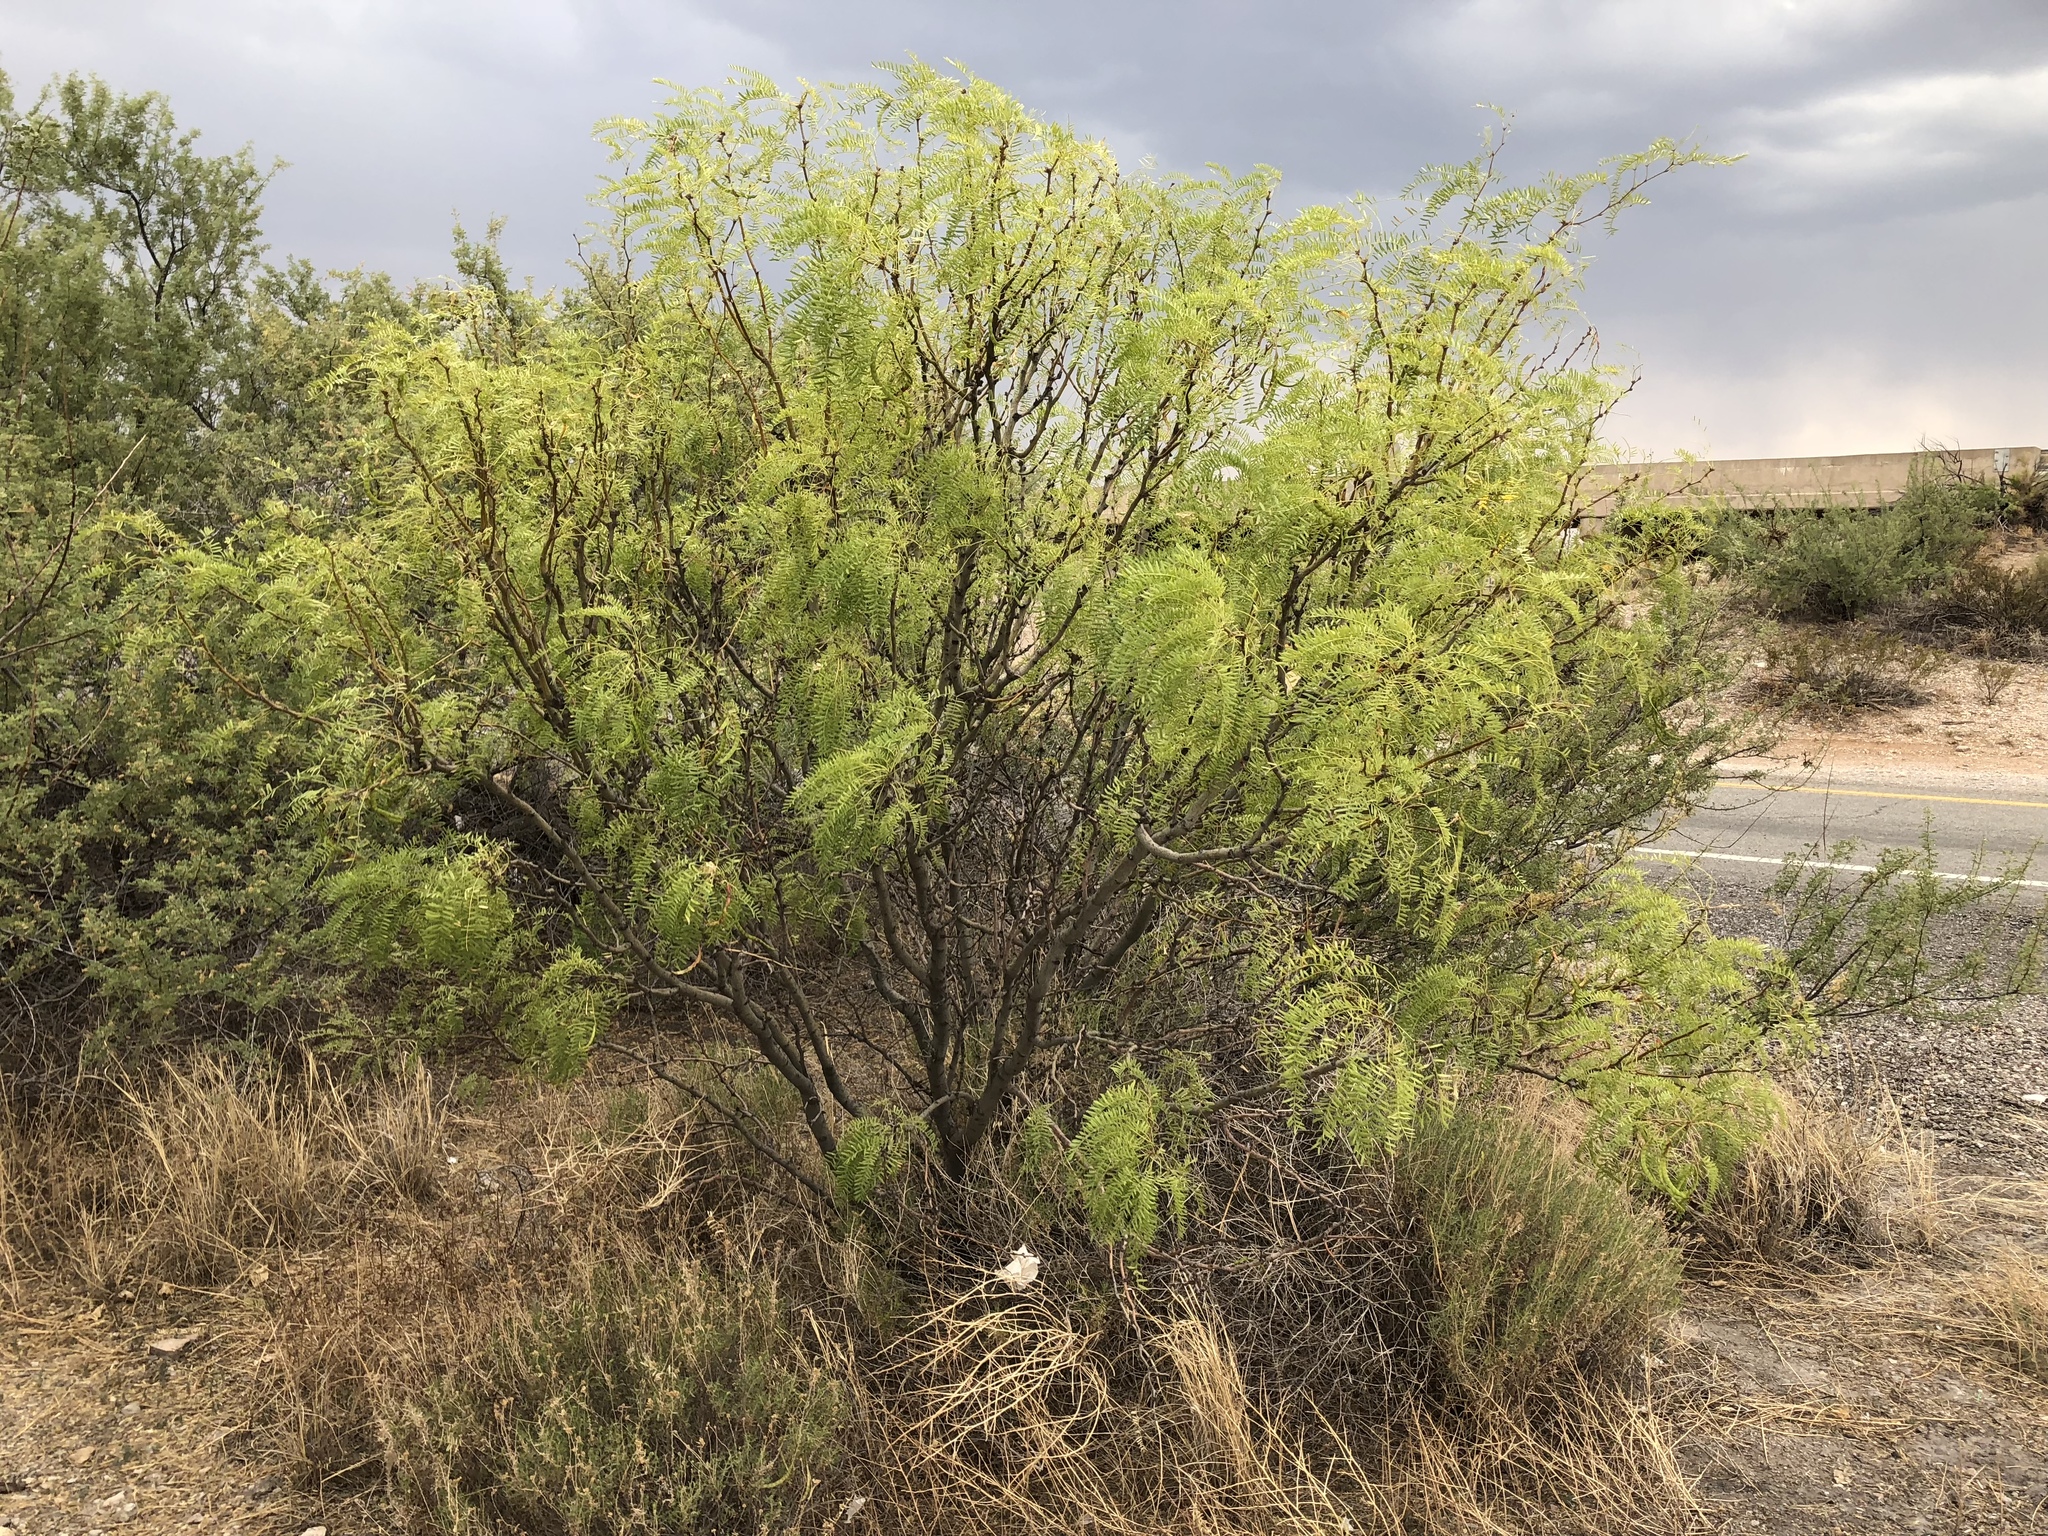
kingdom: Plantae
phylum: Tracheophyta
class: Magnoliopsida
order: Fabales
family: Fabaceae
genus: Prosopis
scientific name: Prosopis glandulosa
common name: Honey mesquite
